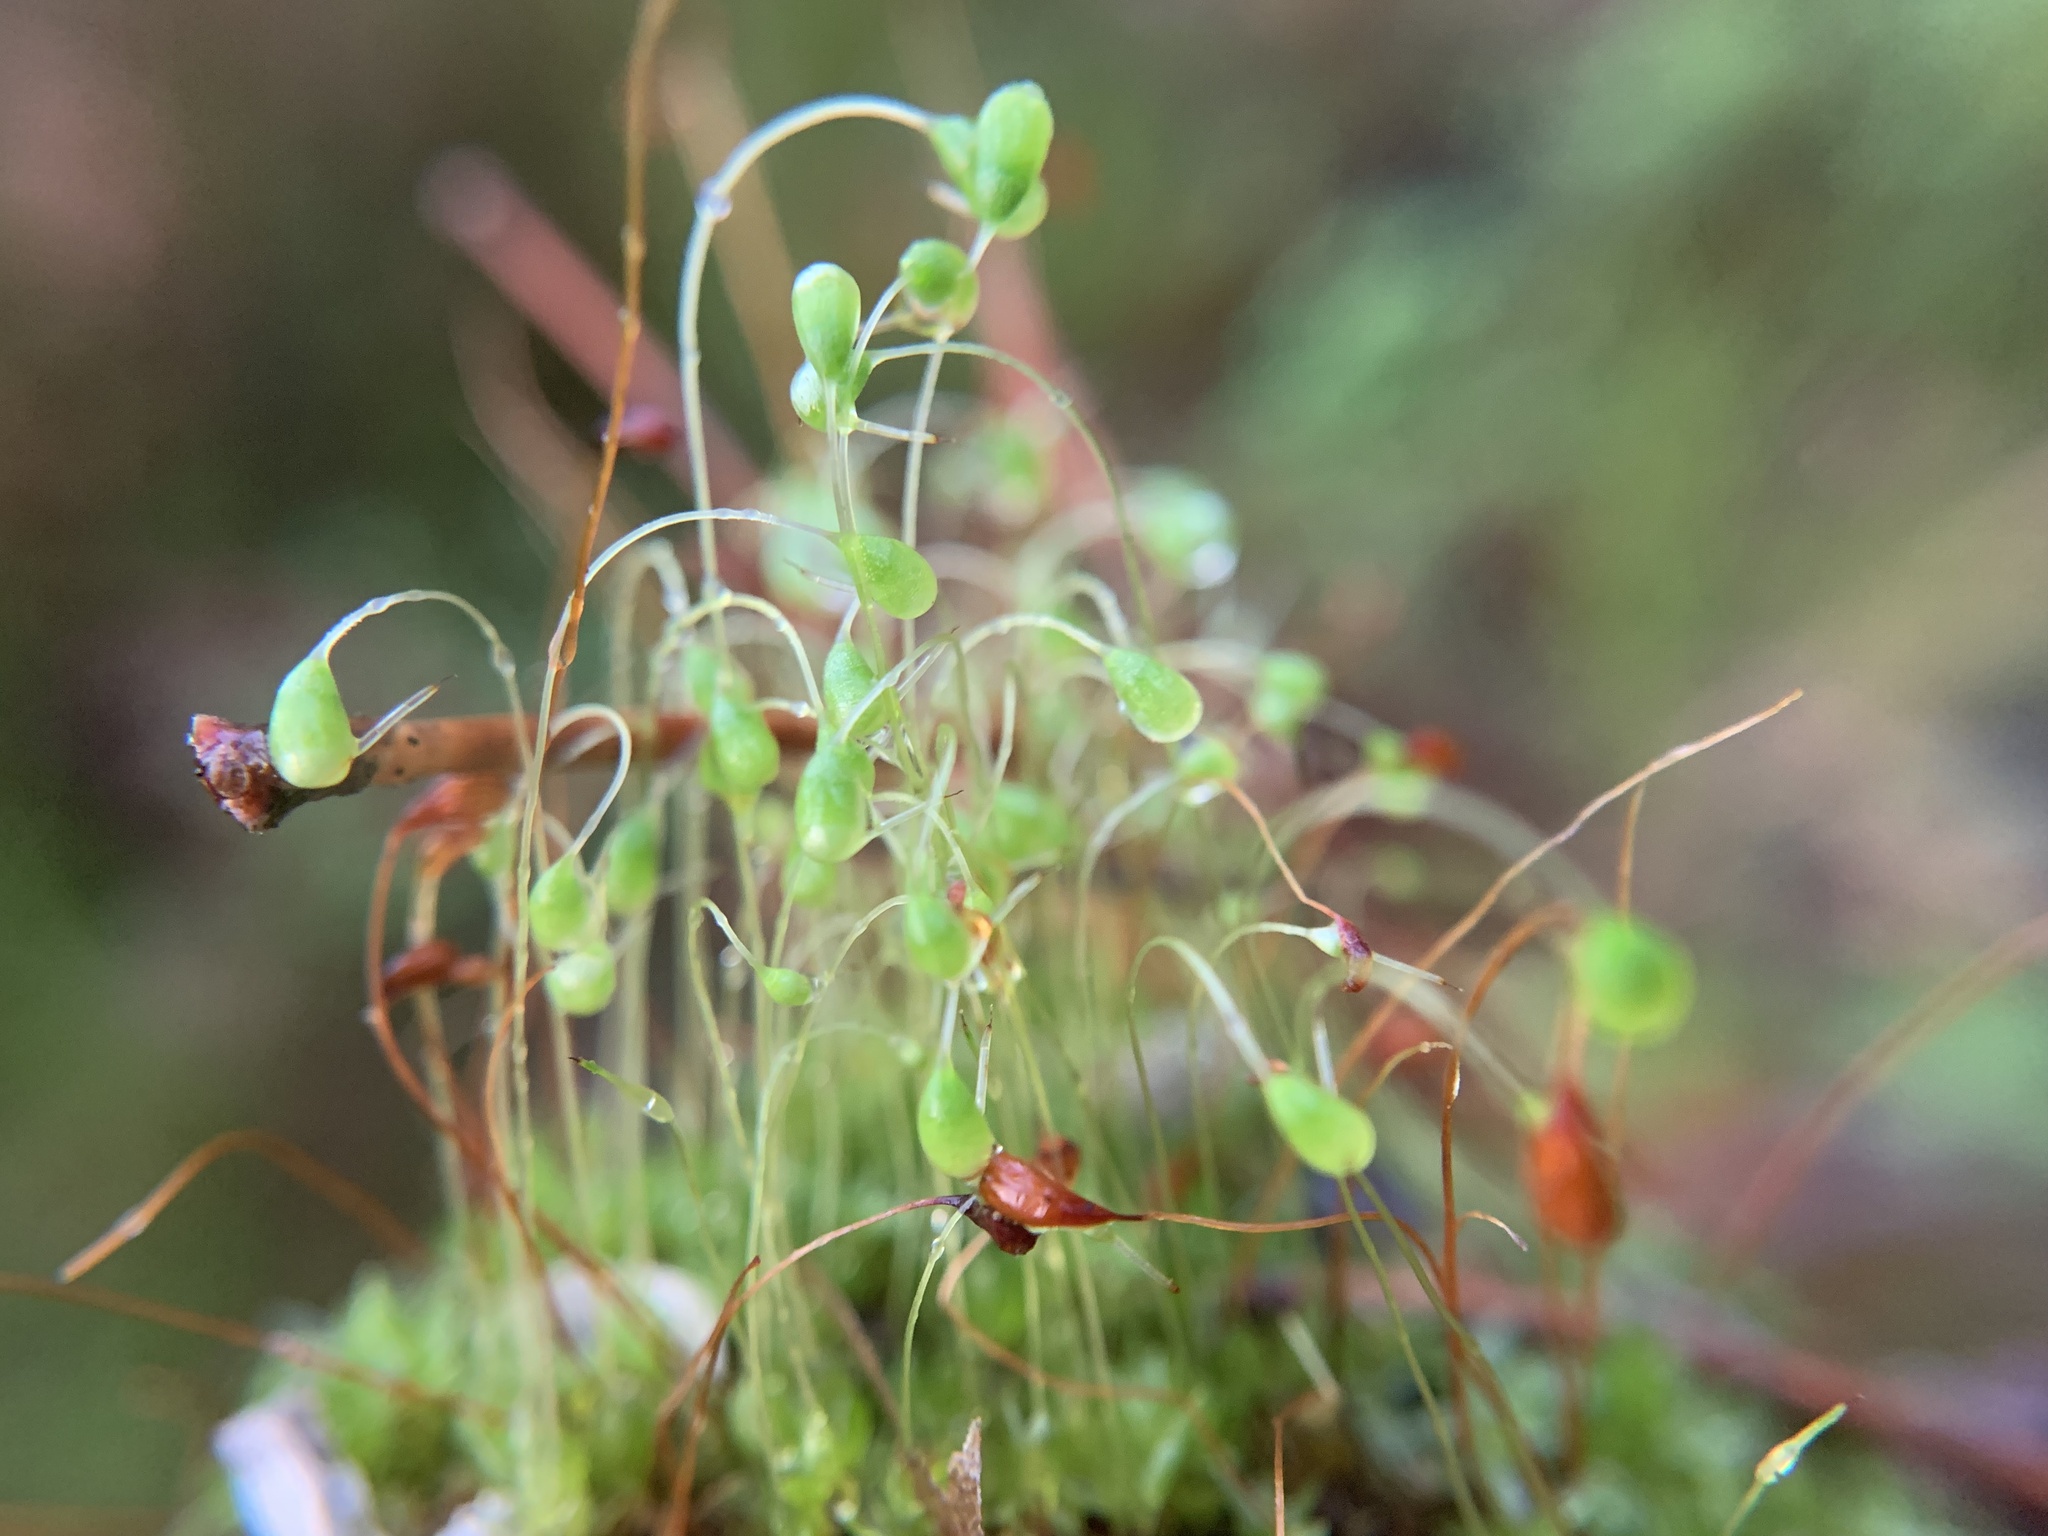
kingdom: Plantae
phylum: Bryophyta
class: Bryopsida
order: Funariales
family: Funariaceae
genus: Funaria
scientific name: Funaria hygrometrica
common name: Common cord moss
